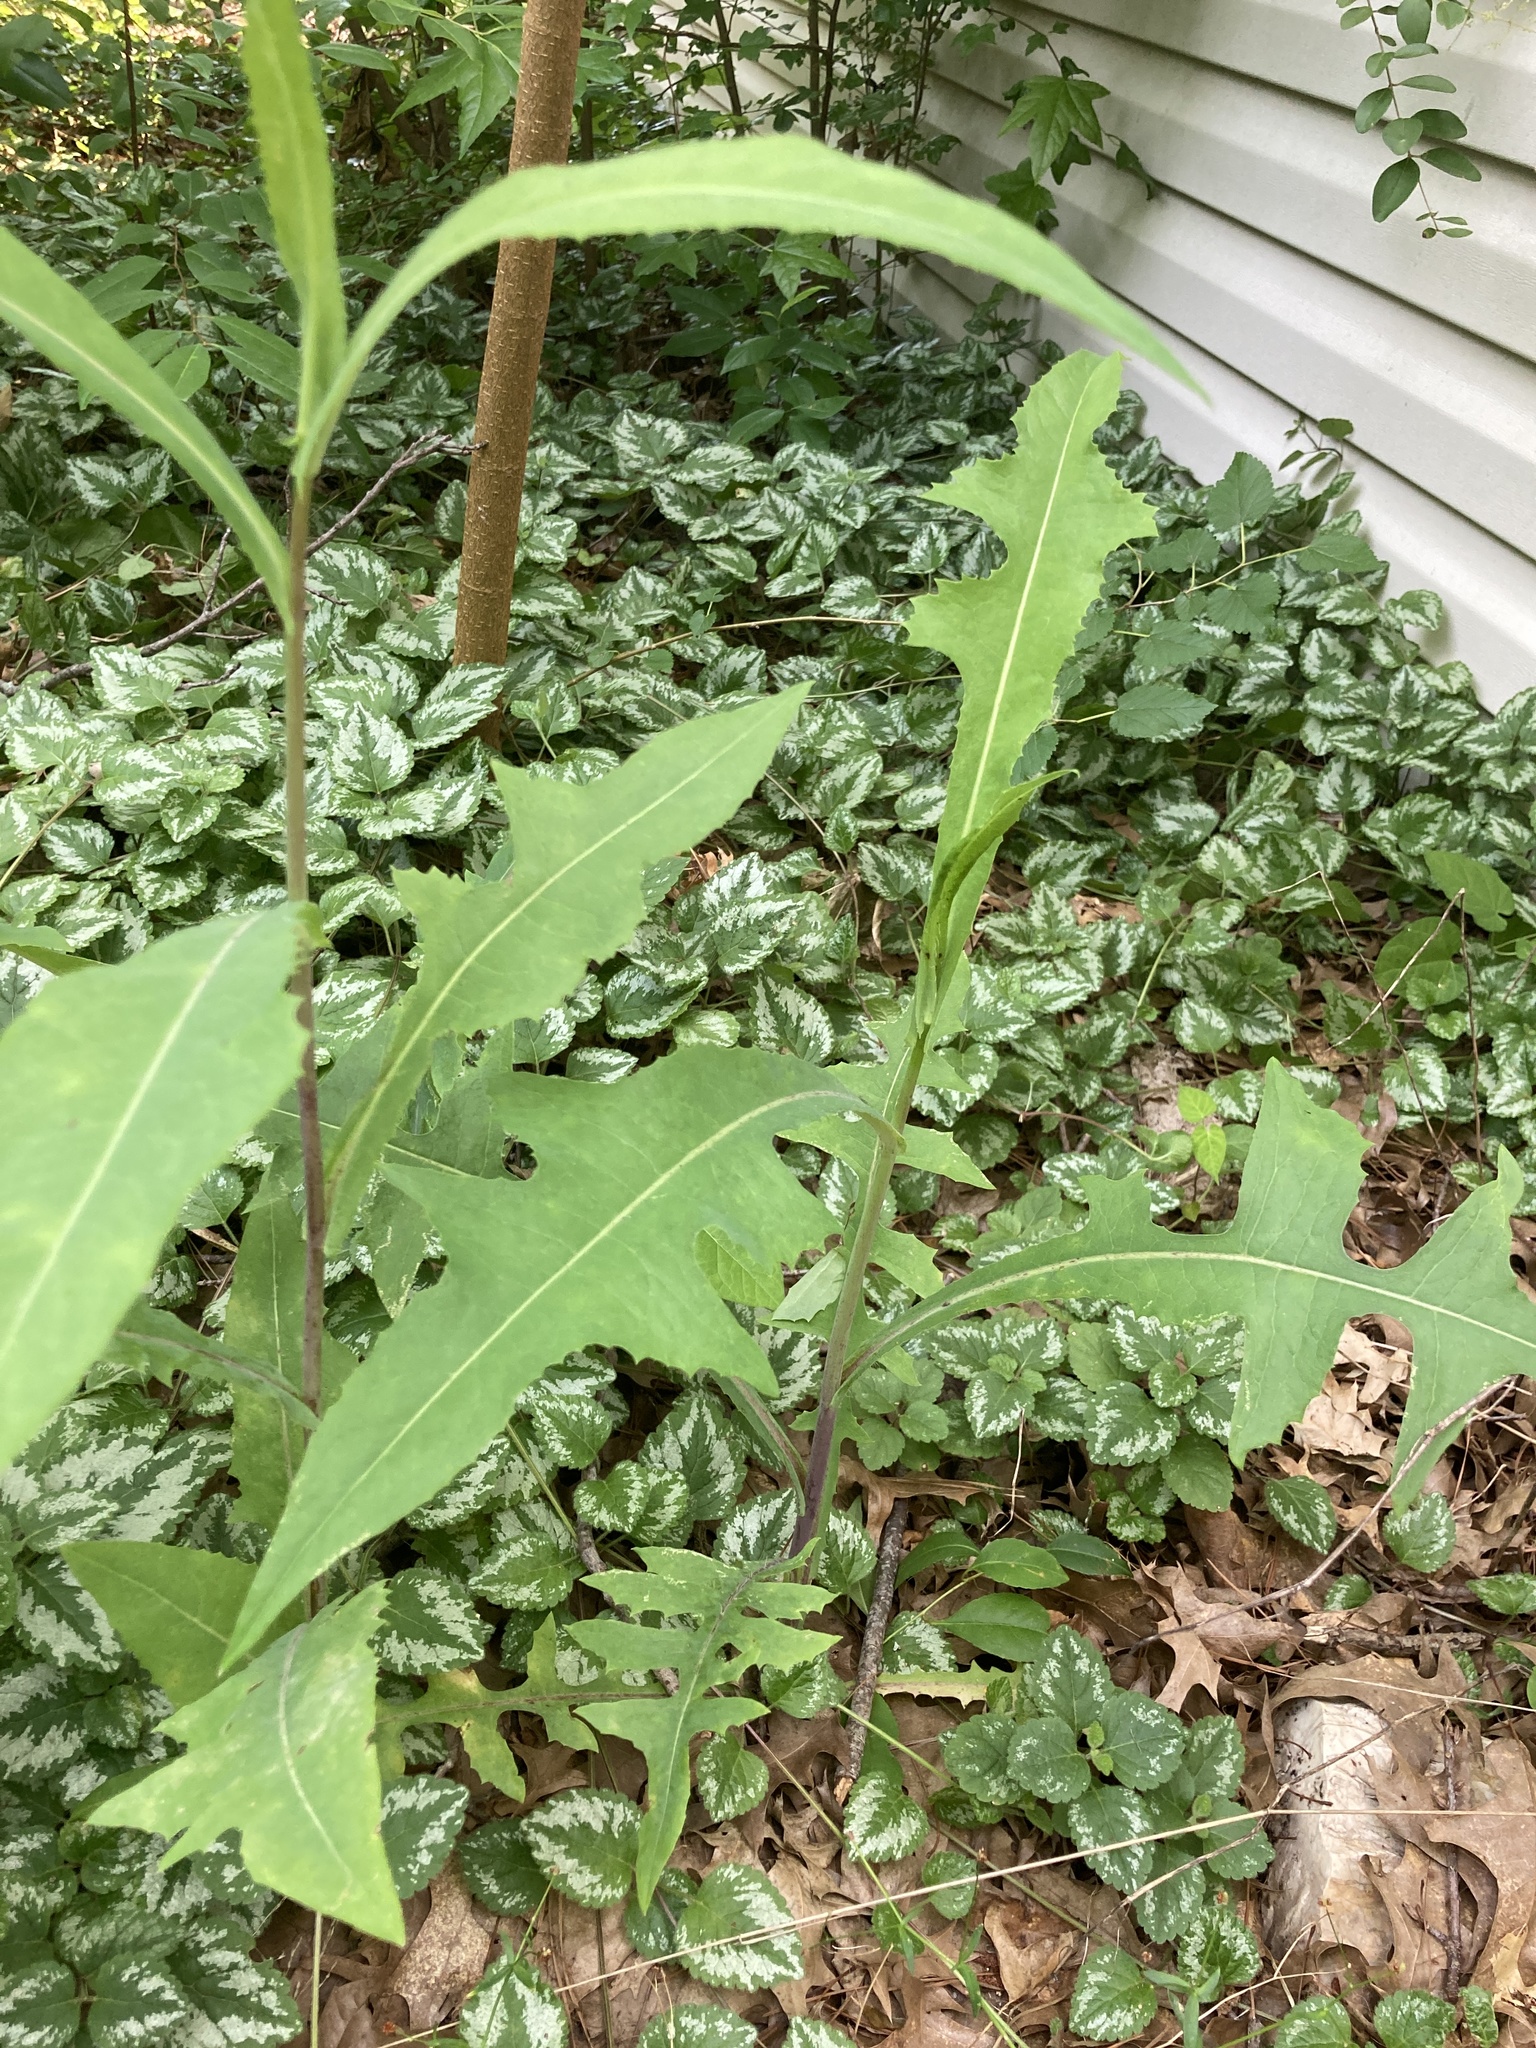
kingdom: Plantae
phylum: Tracheophyta
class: Magnoliopsida
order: Asterales
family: Asteraceae
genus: Lactuca
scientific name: Lactuca canadensis
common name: Canada lettuce
